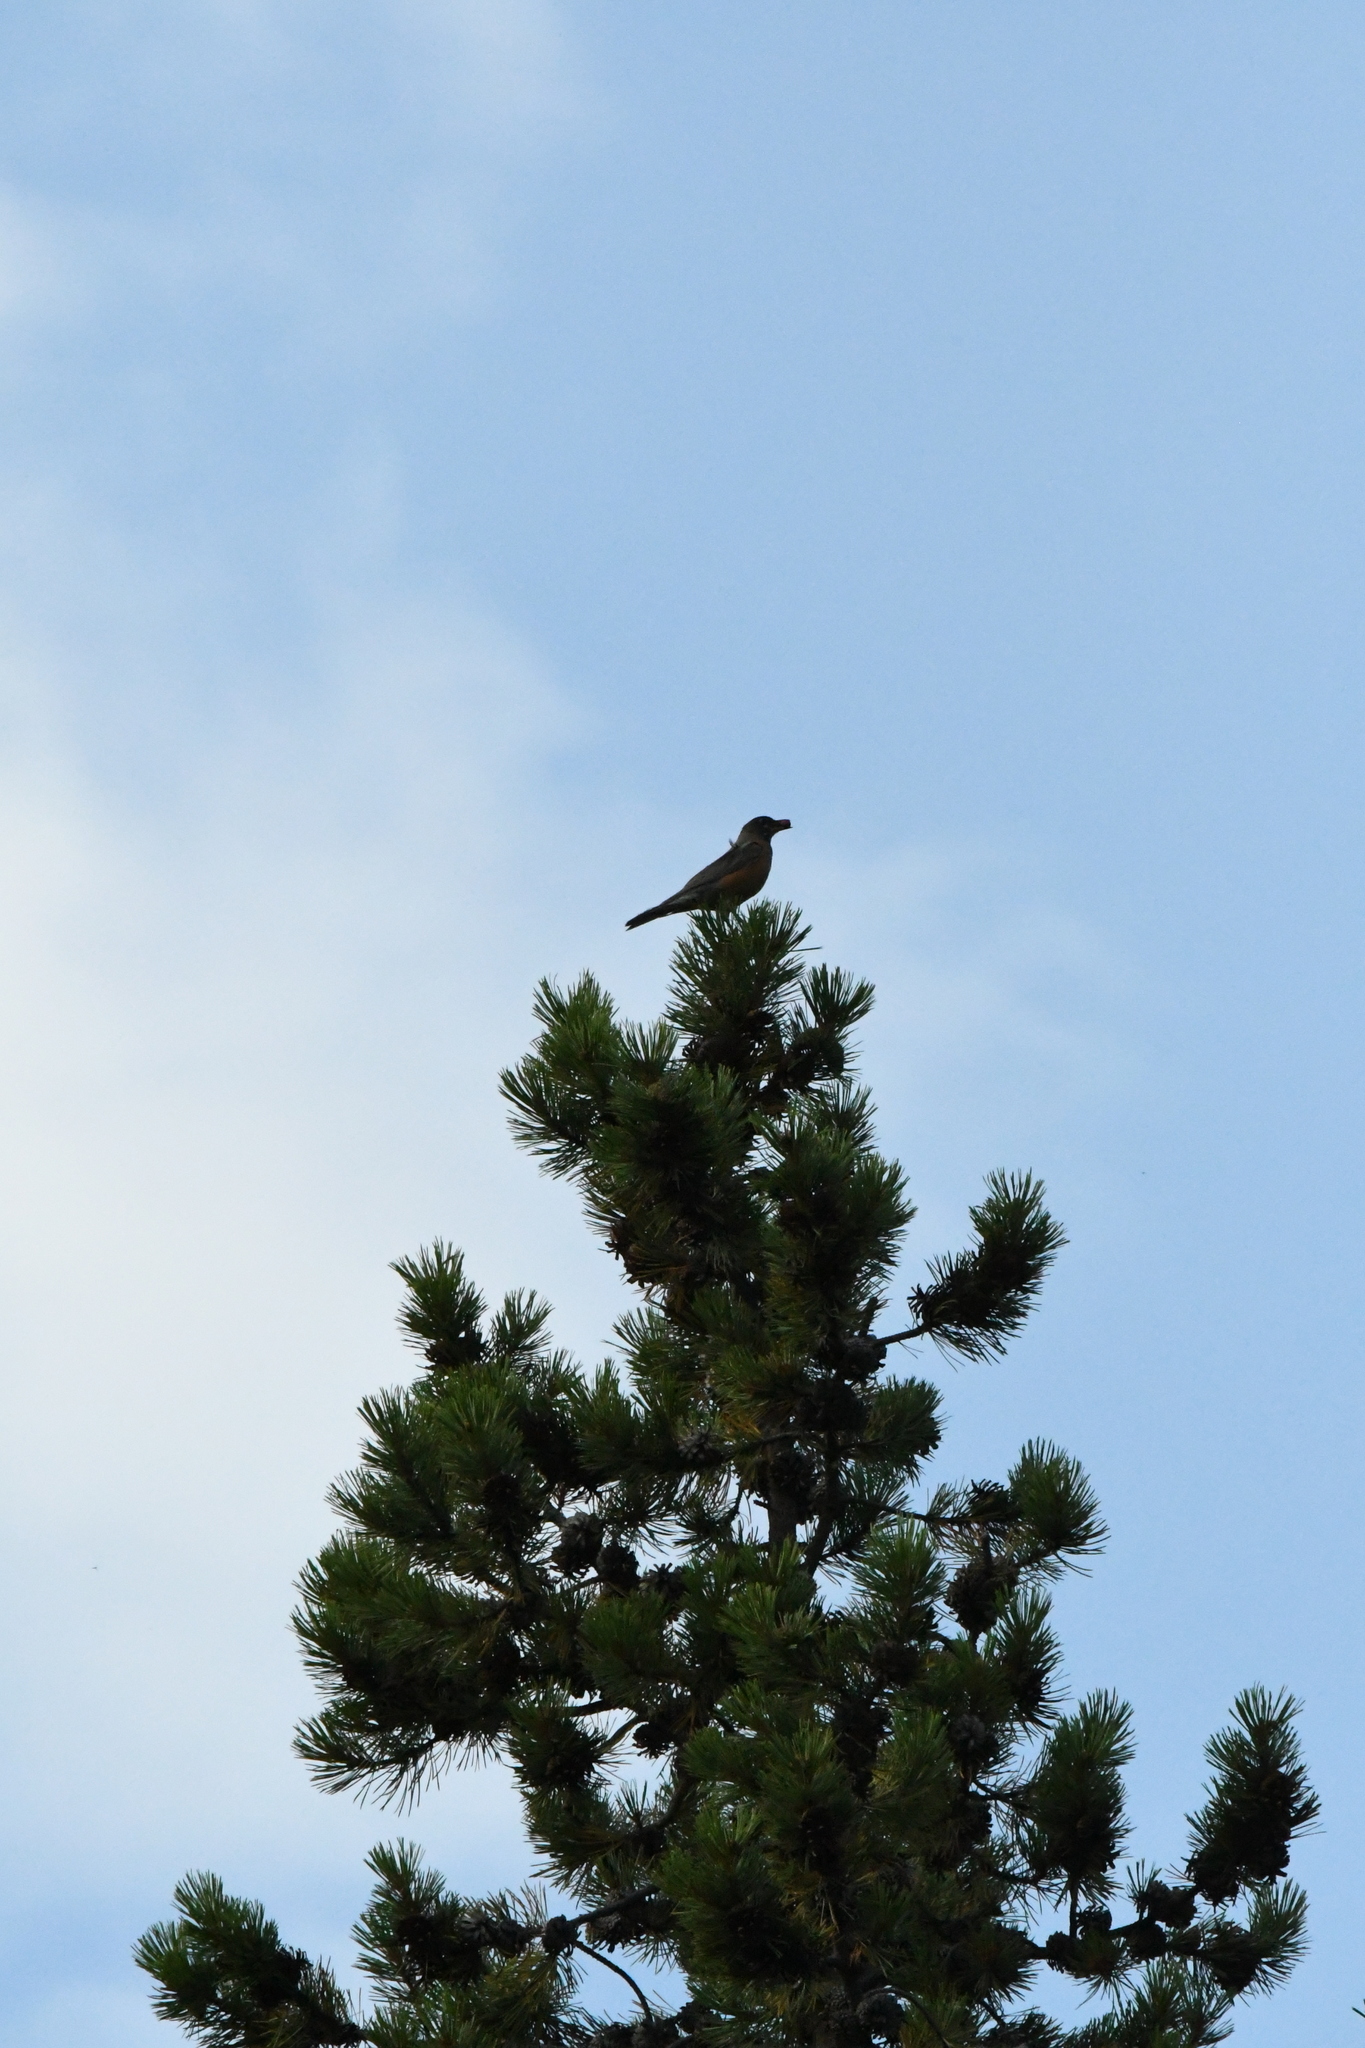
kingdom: Animalia
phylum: Chordata
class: Aves
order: Passeriformes
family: Turdidae
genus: Turdus
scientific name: Turdus migratorius
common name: American robin
